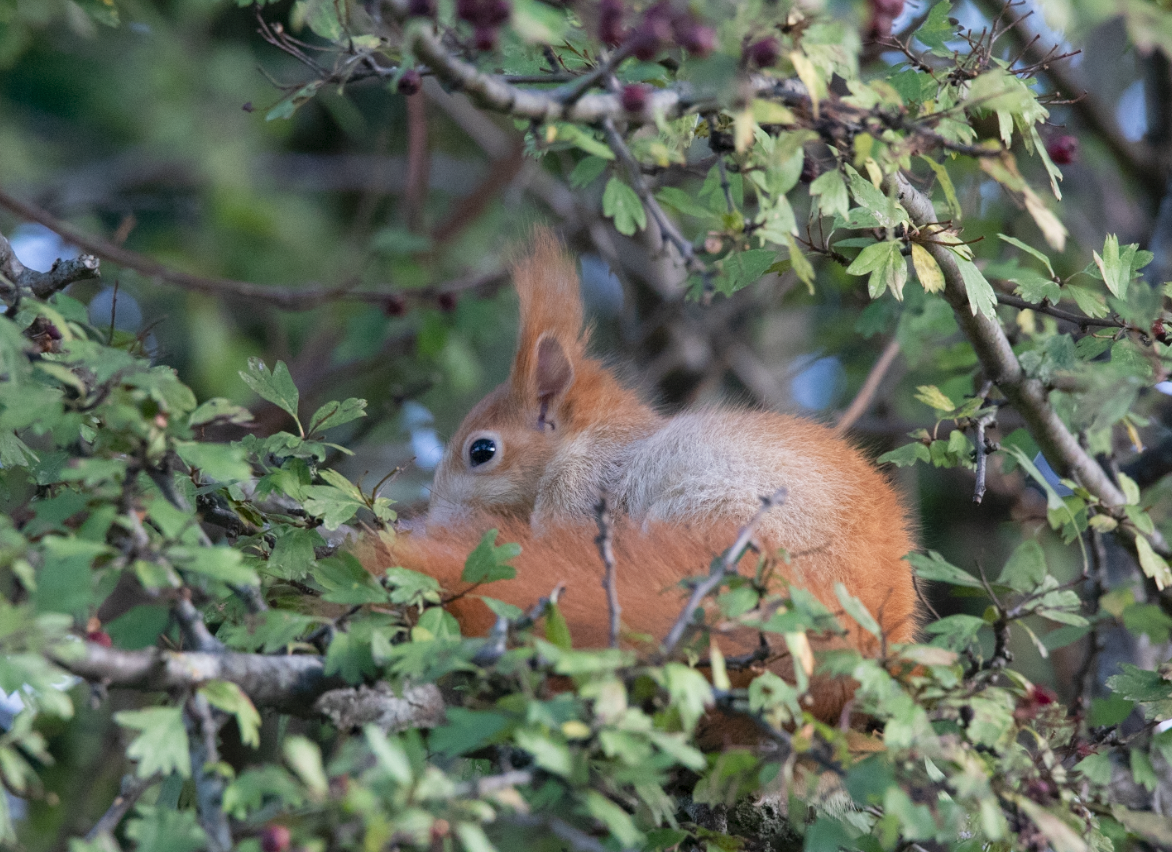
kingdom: Animalia
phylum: Chordata
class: Mammalia
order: Rodentia
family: Sciuridae
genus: Sciurus
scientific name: Sciurus vulgaris
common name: Eurasian red squirrel
